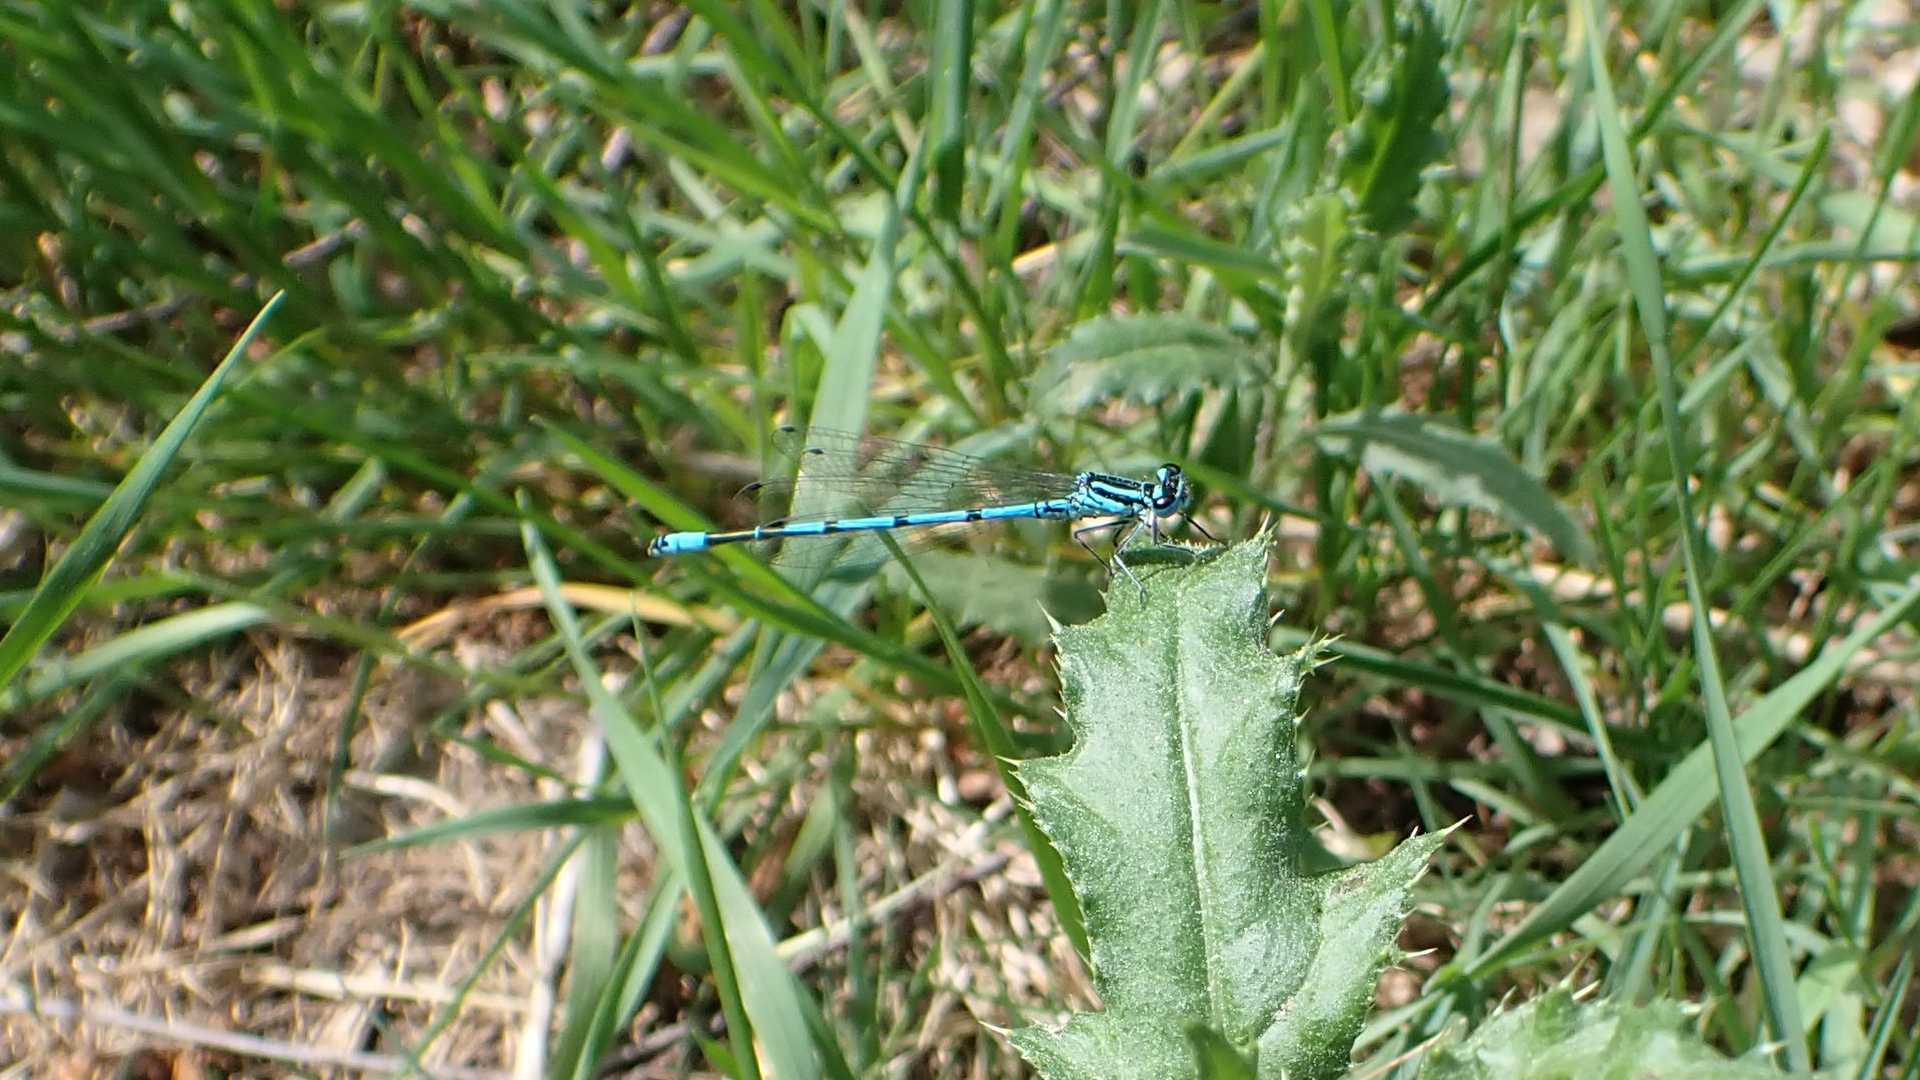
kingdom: Animalia
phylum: Arthropoda
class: Insecta
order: Odonata
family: Coenagrionidae
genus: Coenagrion
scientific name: Coenagrion puella
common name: Azure damselfly
